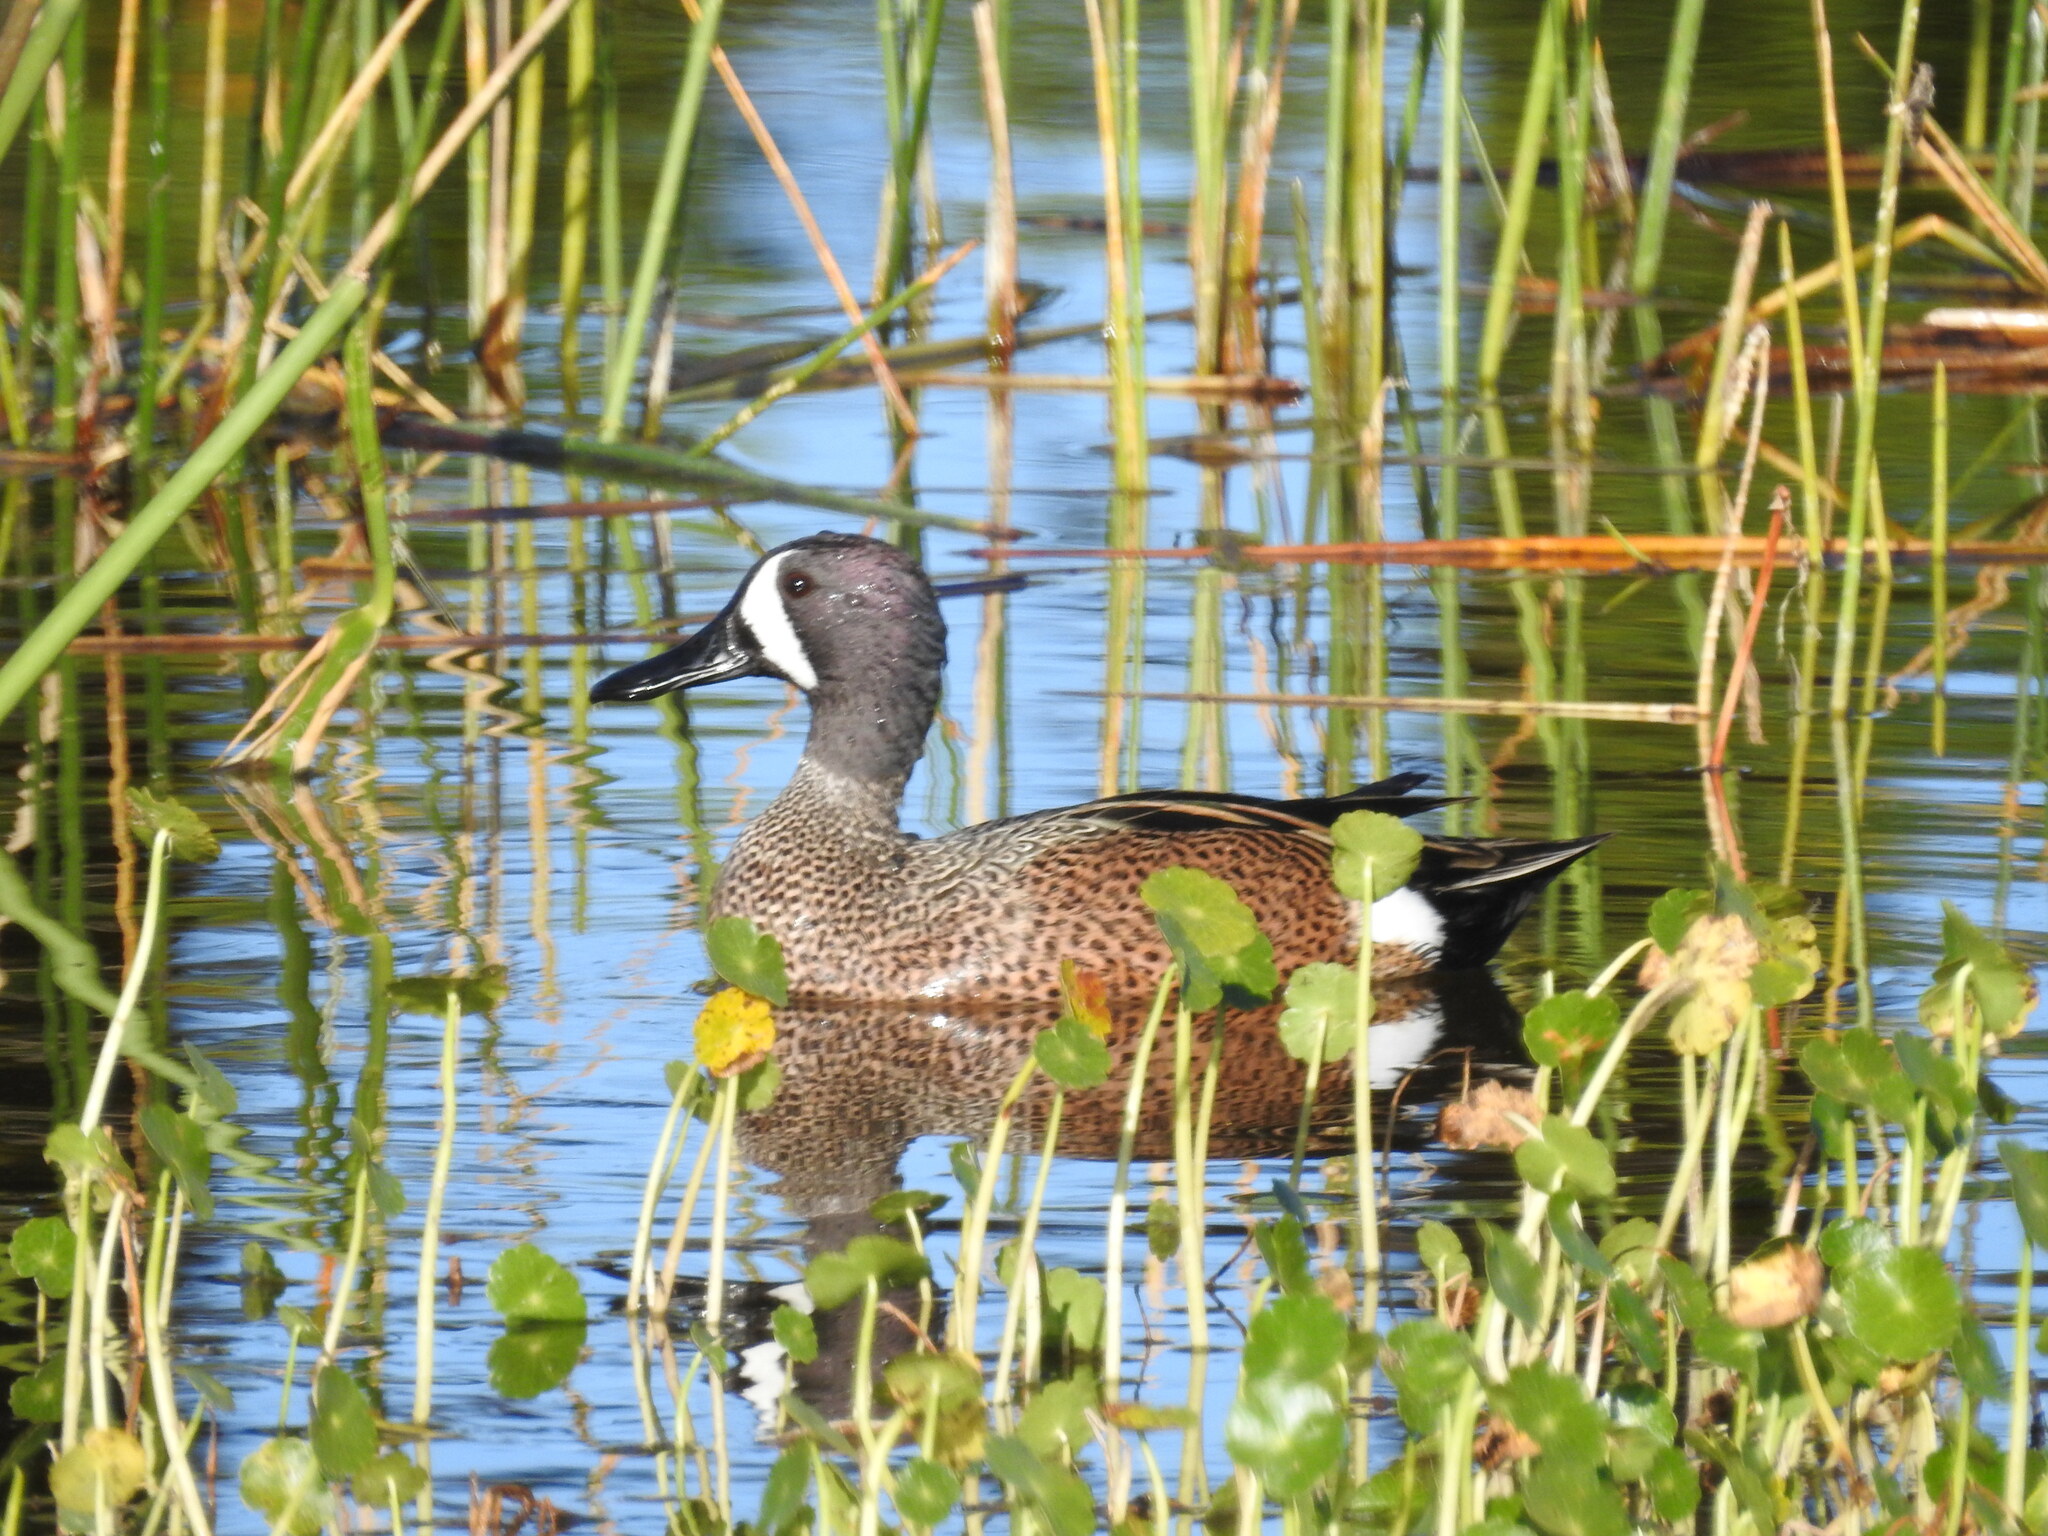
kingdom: Animalia
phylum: Chordata
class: Aves
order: Anseriformes
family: Anatidae
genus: Spatula
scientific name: Spatula discors
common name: Blue-winged teal
